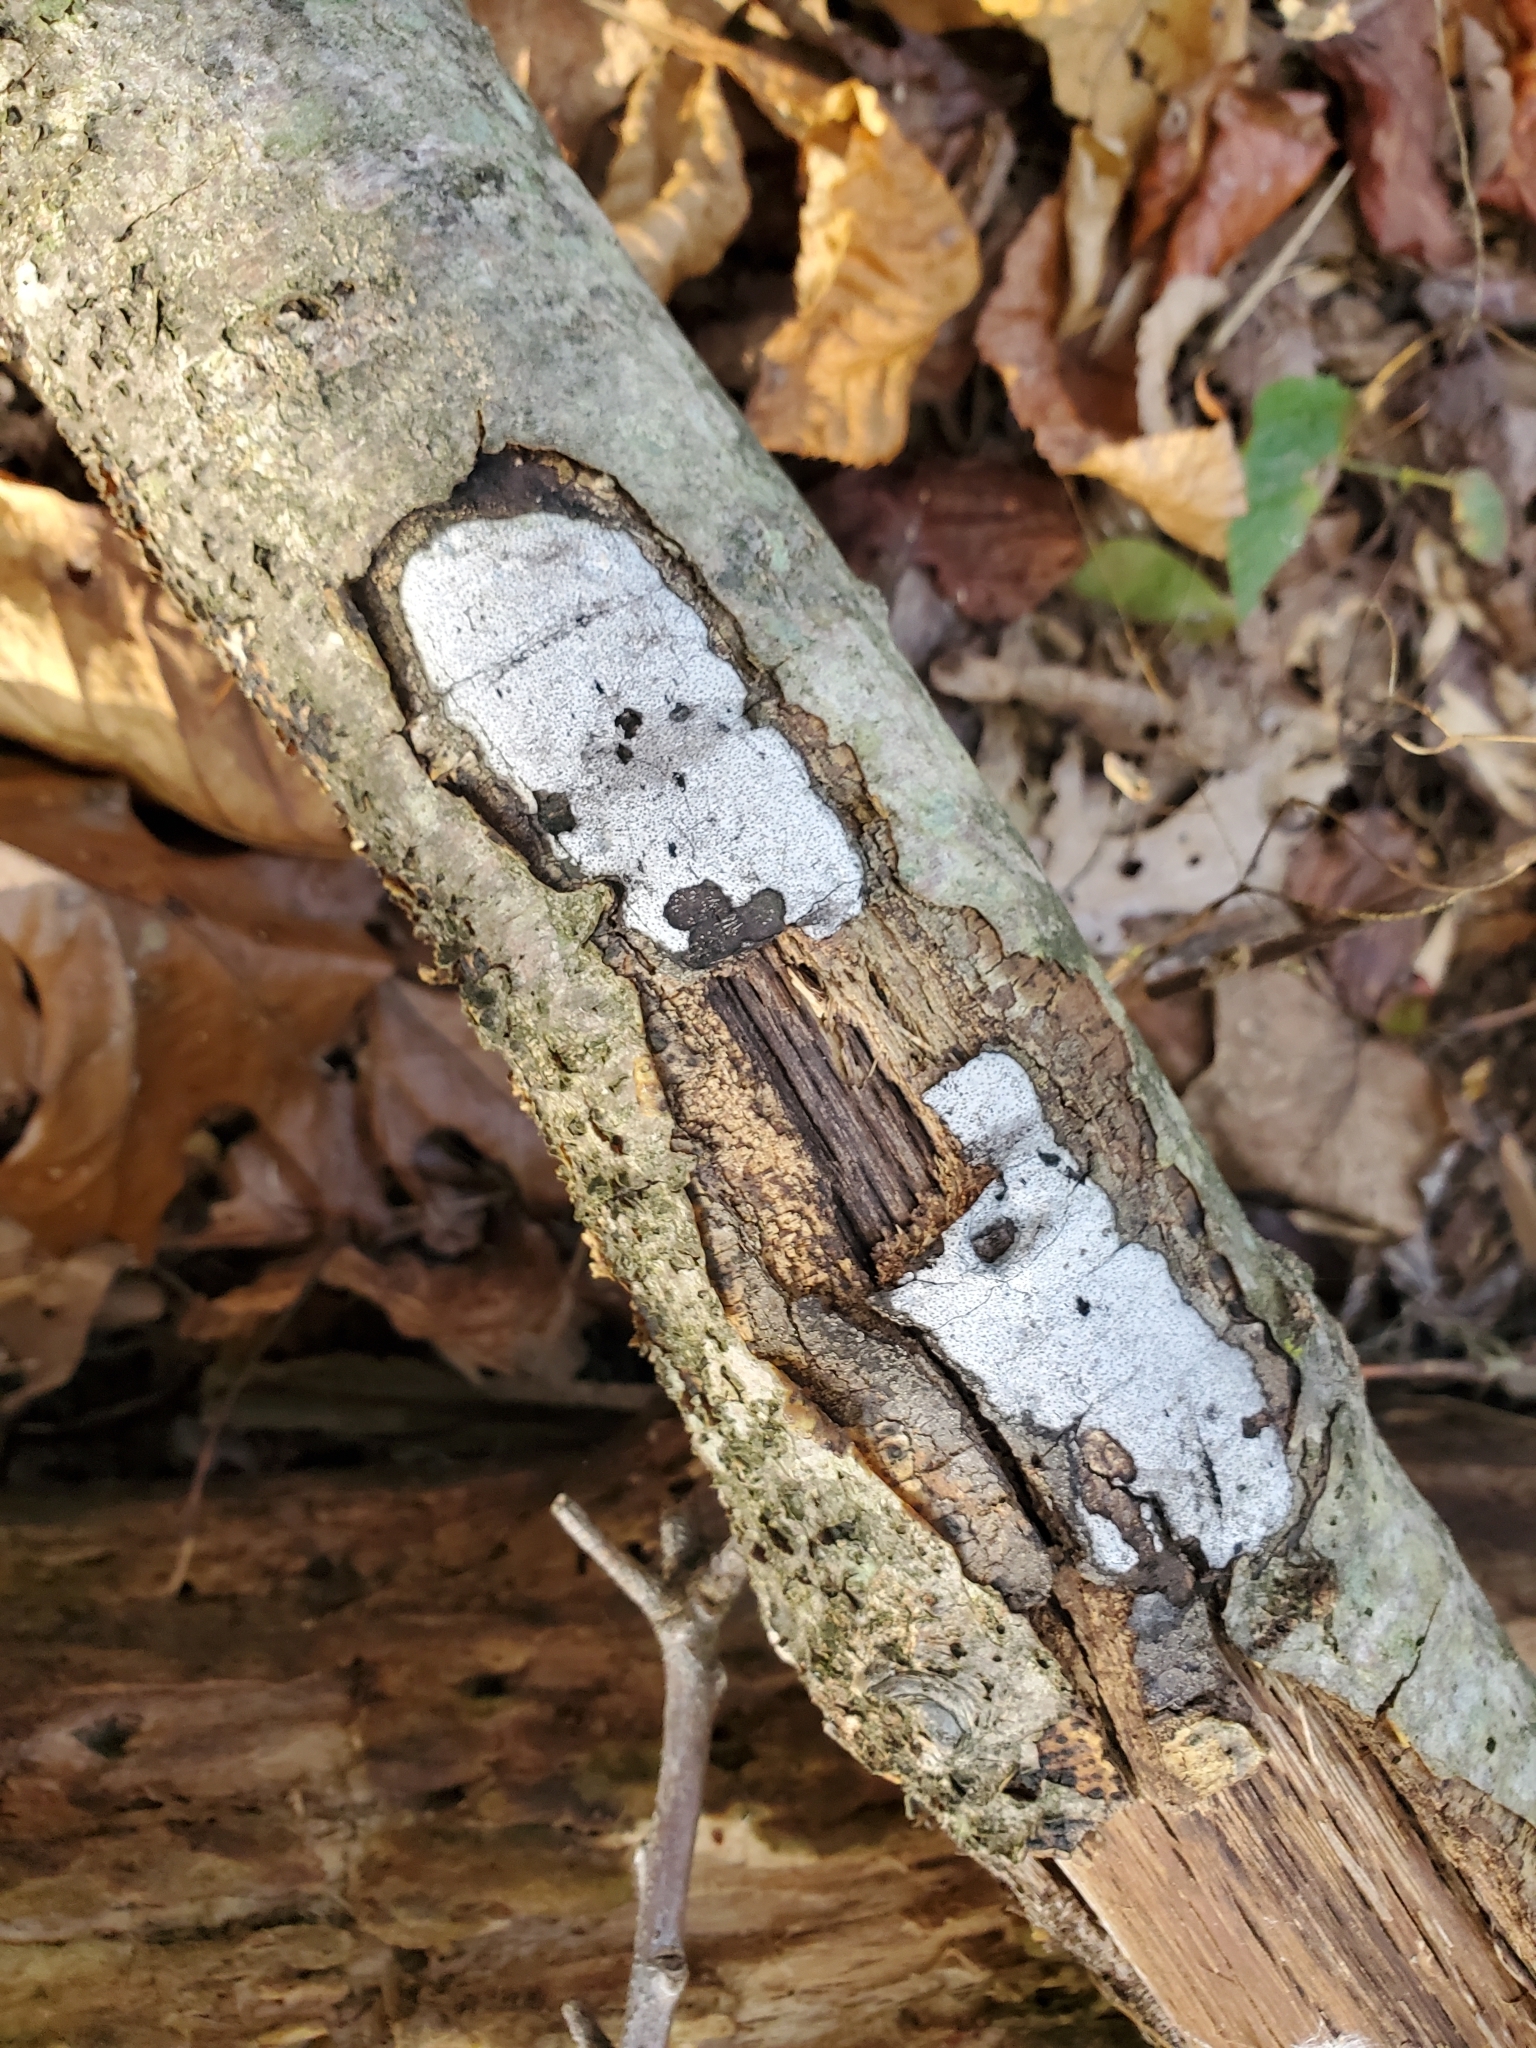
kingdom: Fungi
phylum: Ascomycota
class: Sordariomycetes
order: Xylariales
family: Graphostromataceae
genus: Biscogniauxia
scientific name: Biscogniauxia atropunctata
